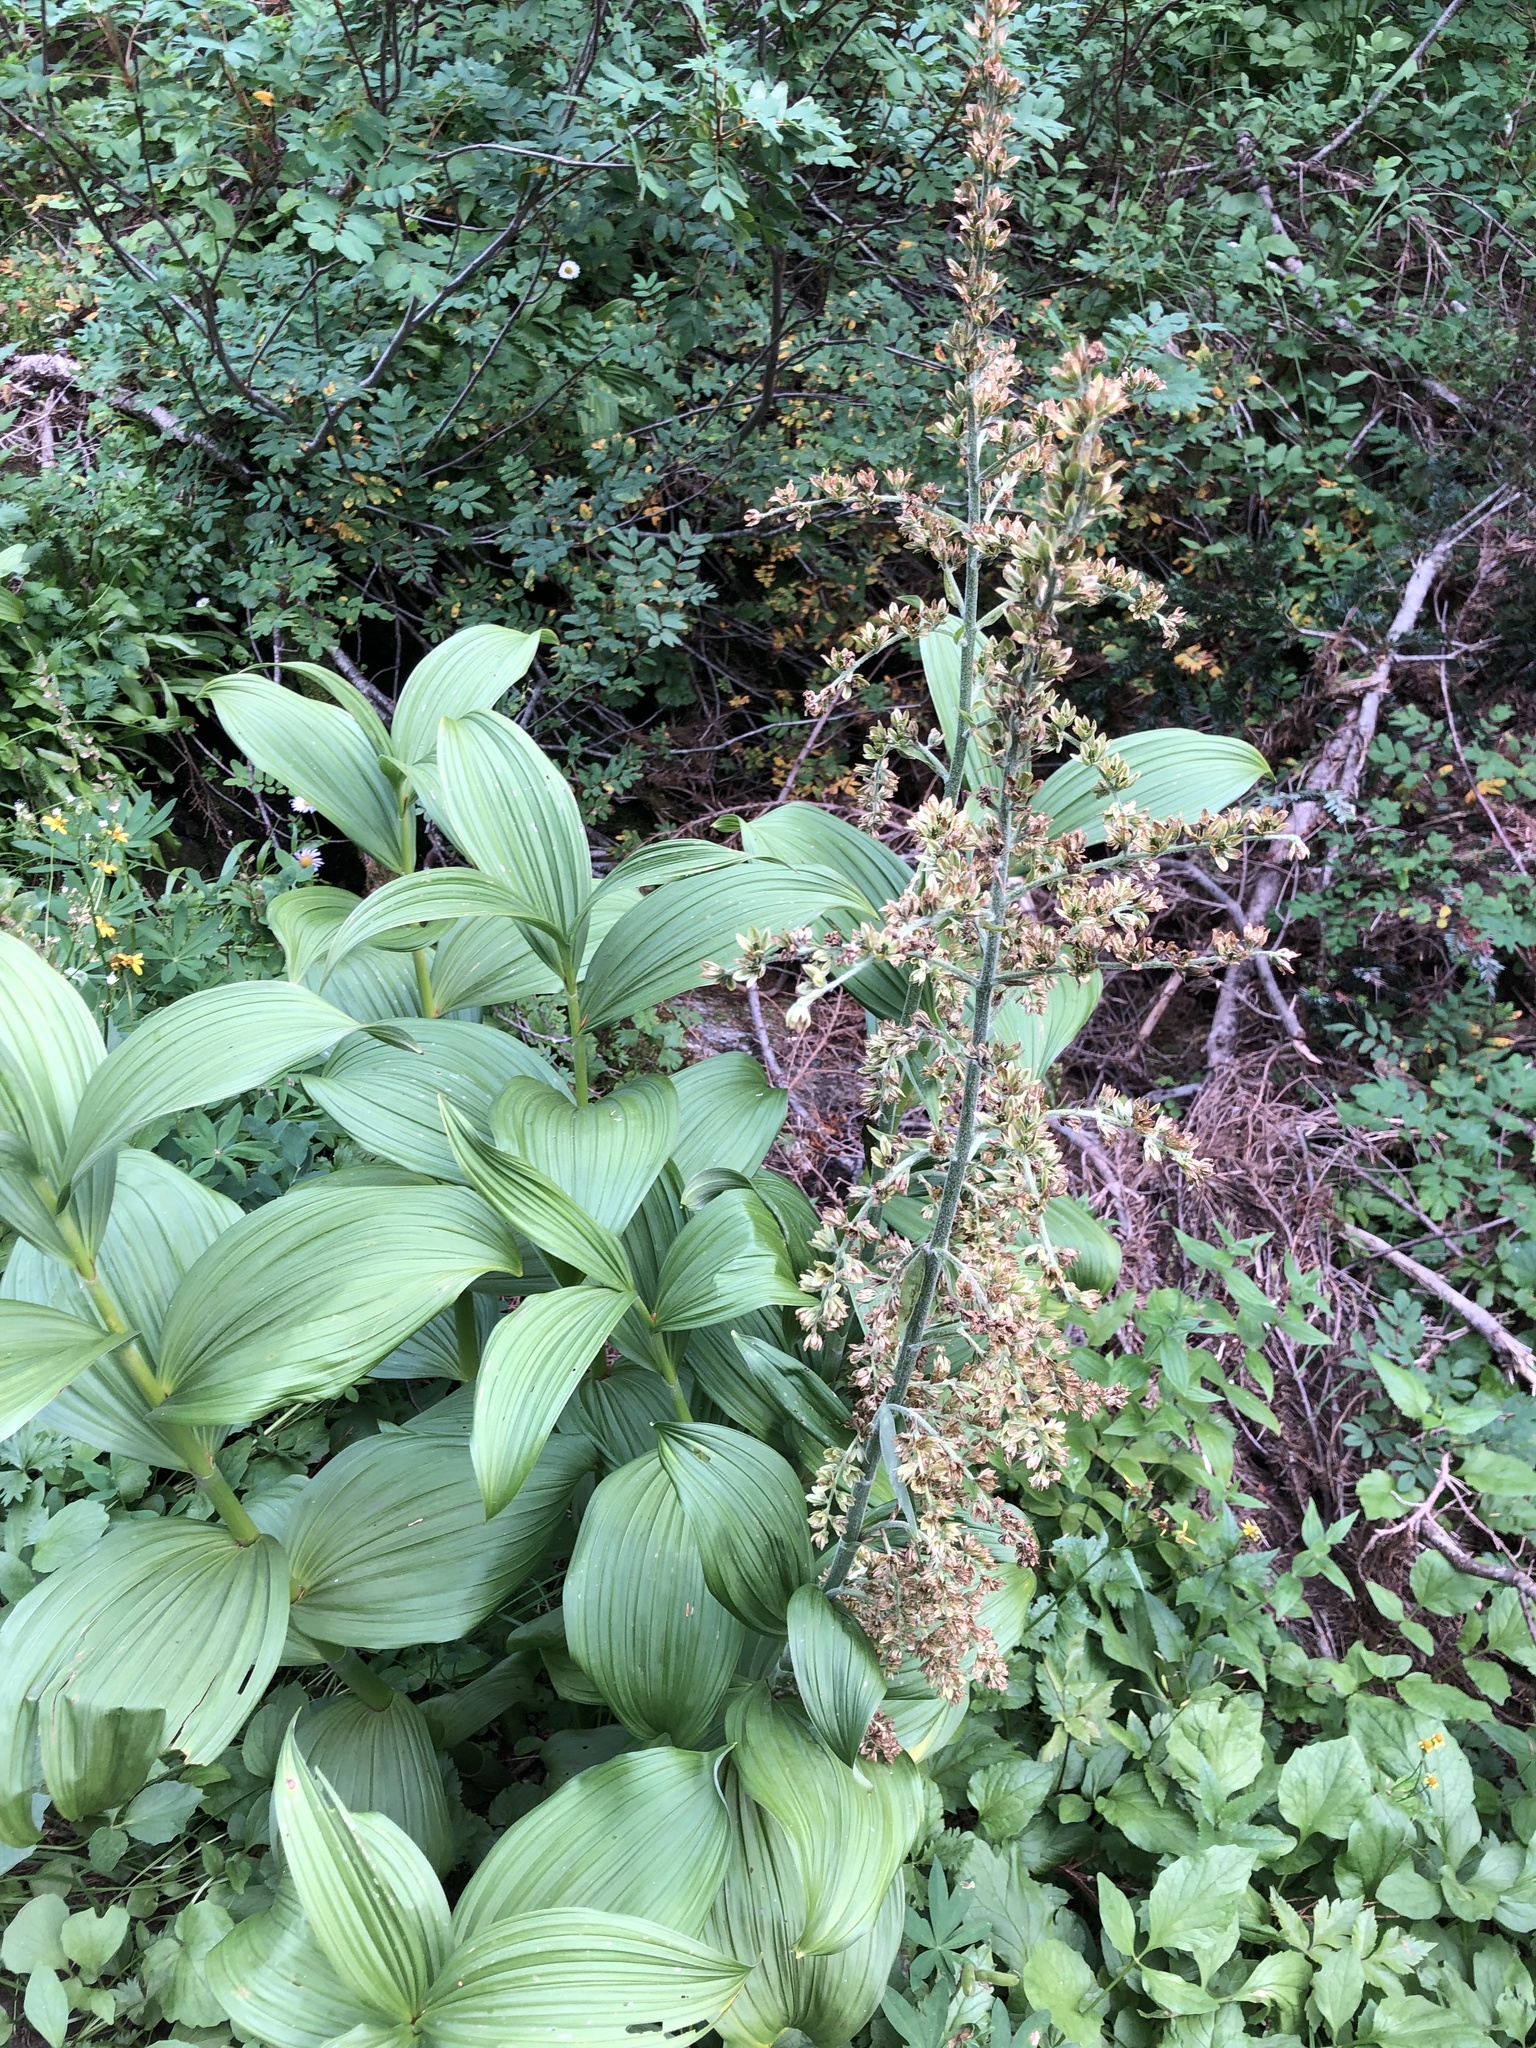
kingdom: Plantae
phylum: Tracheophyta
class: Liliopsida
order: Liliales
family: Melanthiaceae
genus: Veratrum
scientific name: Veratrum viride
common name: American false hellebore
